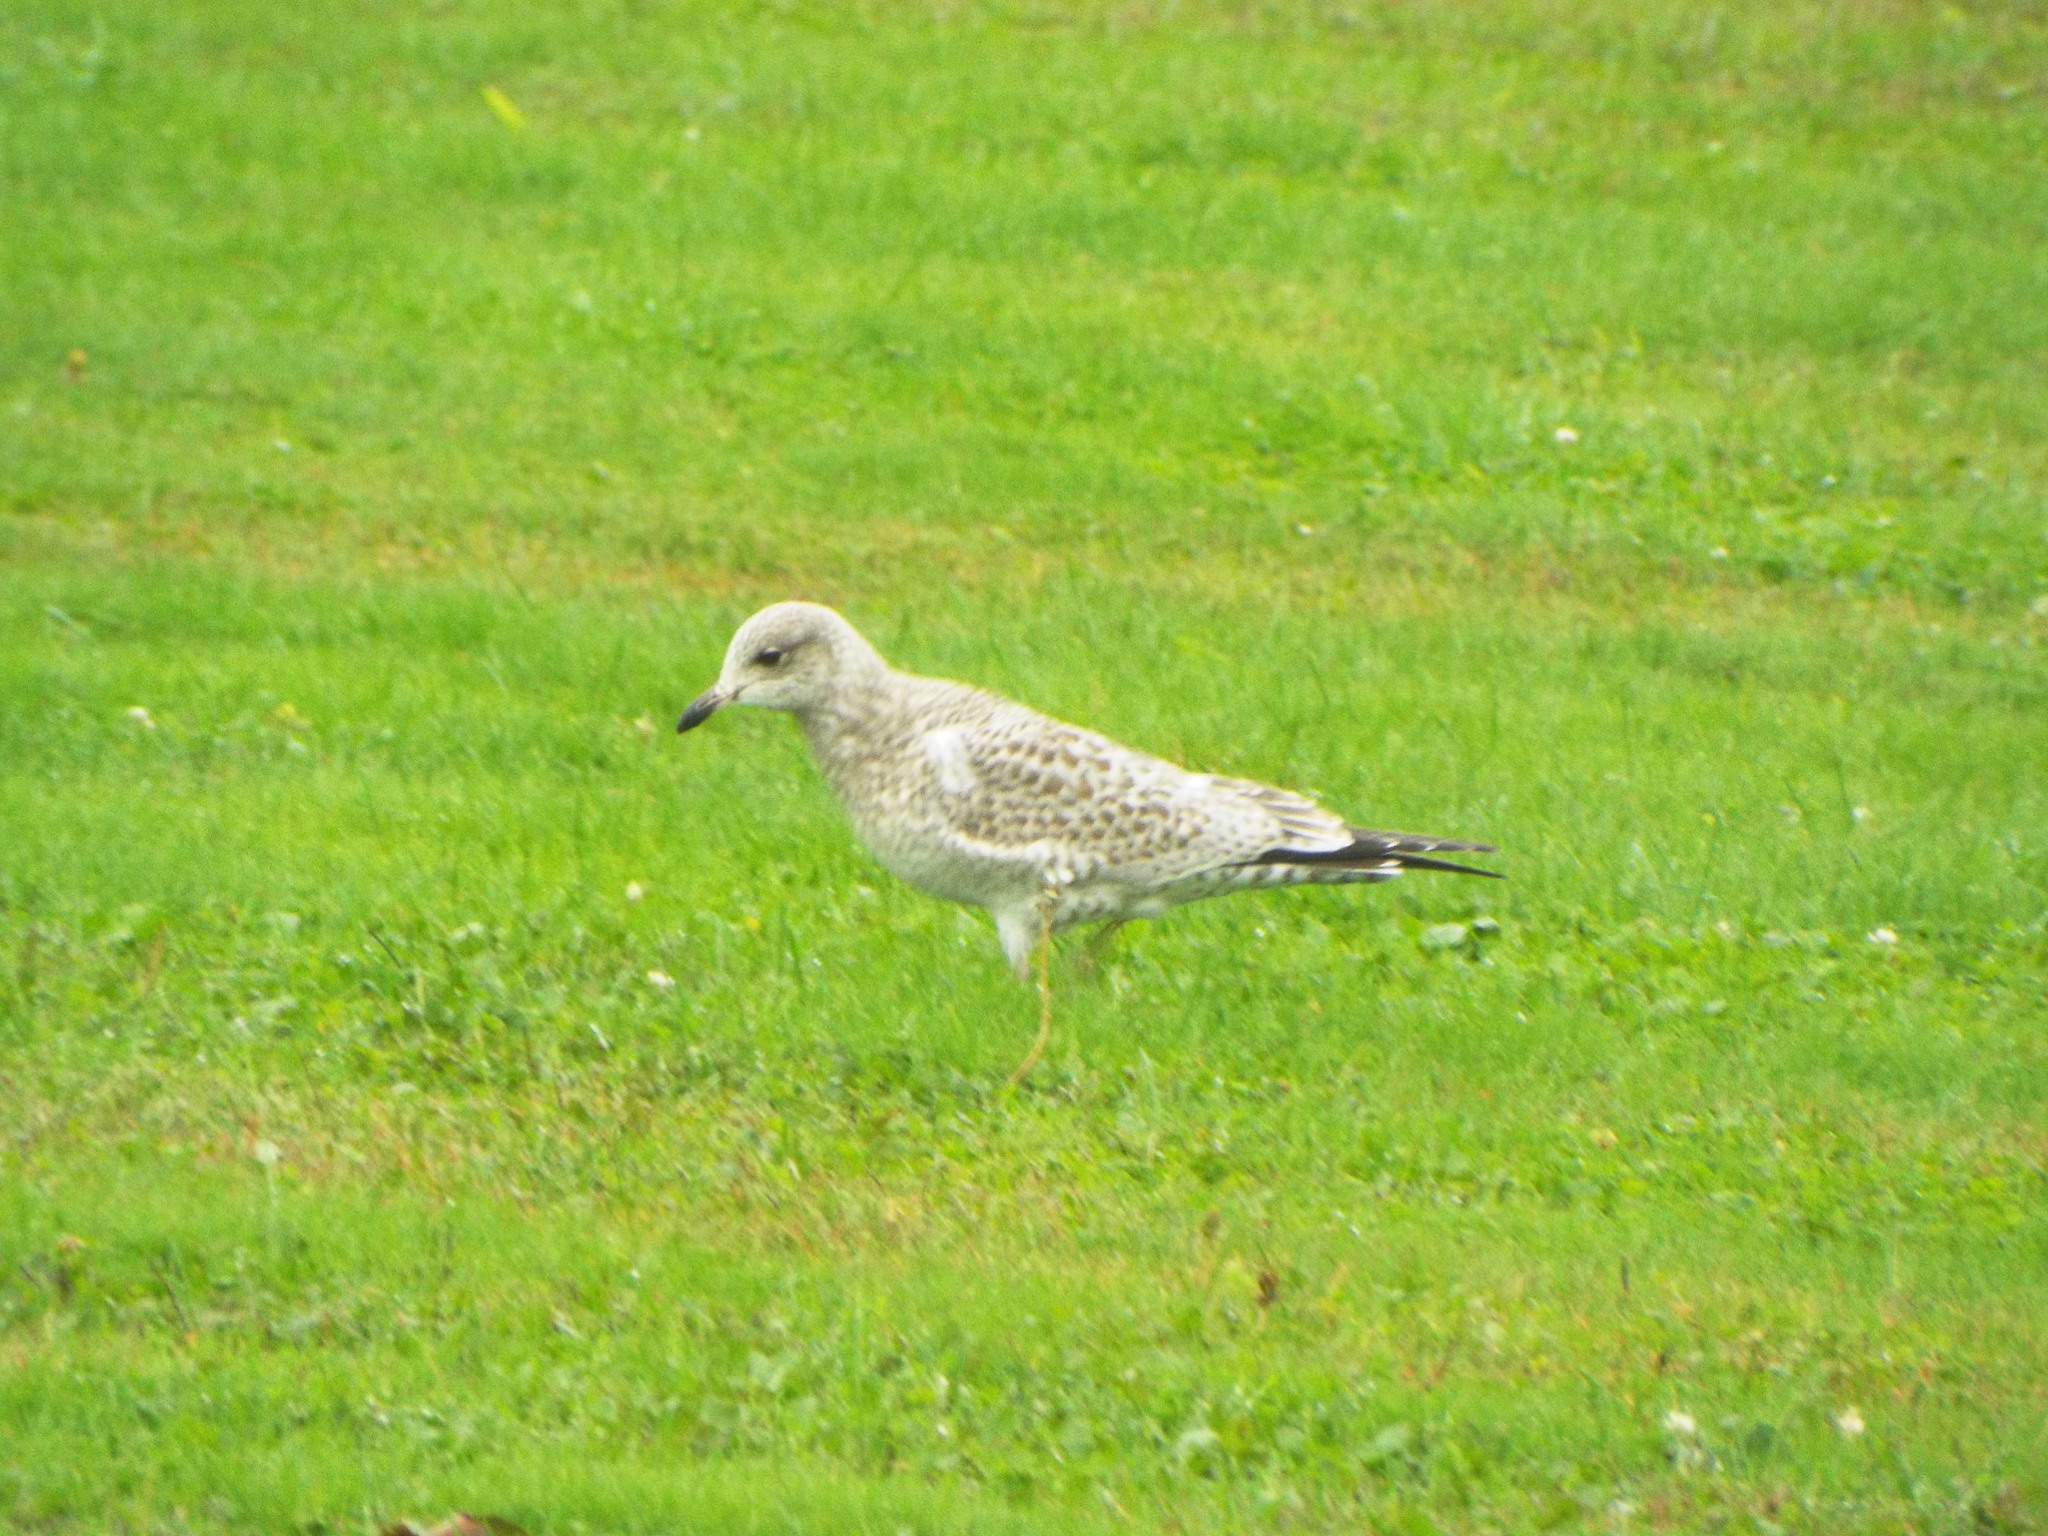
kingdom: Animalia
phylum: Chordata
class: Aves
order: Charadriiformes
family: Laridae
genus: Larus
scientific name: Larus delawarensis
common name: Ring-billed gull
